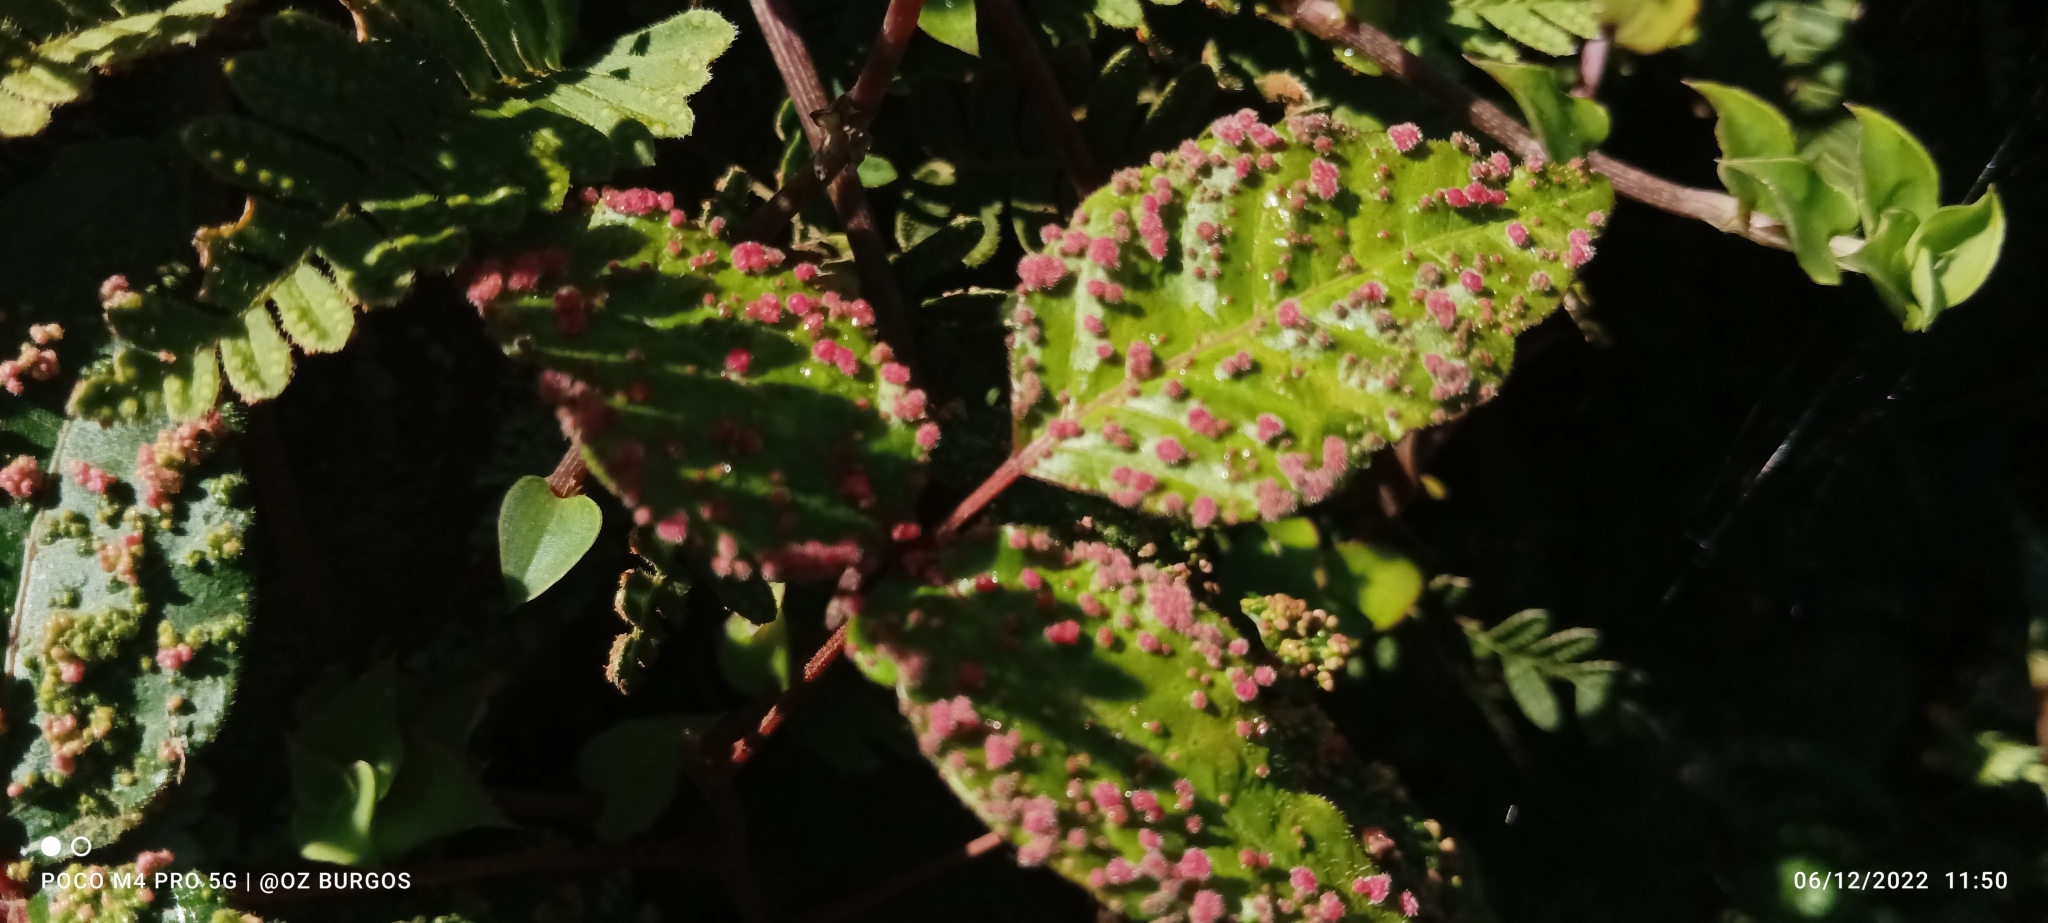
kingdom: Animalia
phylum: Arthropoda
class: Arachnida
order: Trombidiformes
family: Eriophyidae
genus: Aculops
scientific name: Aculops
